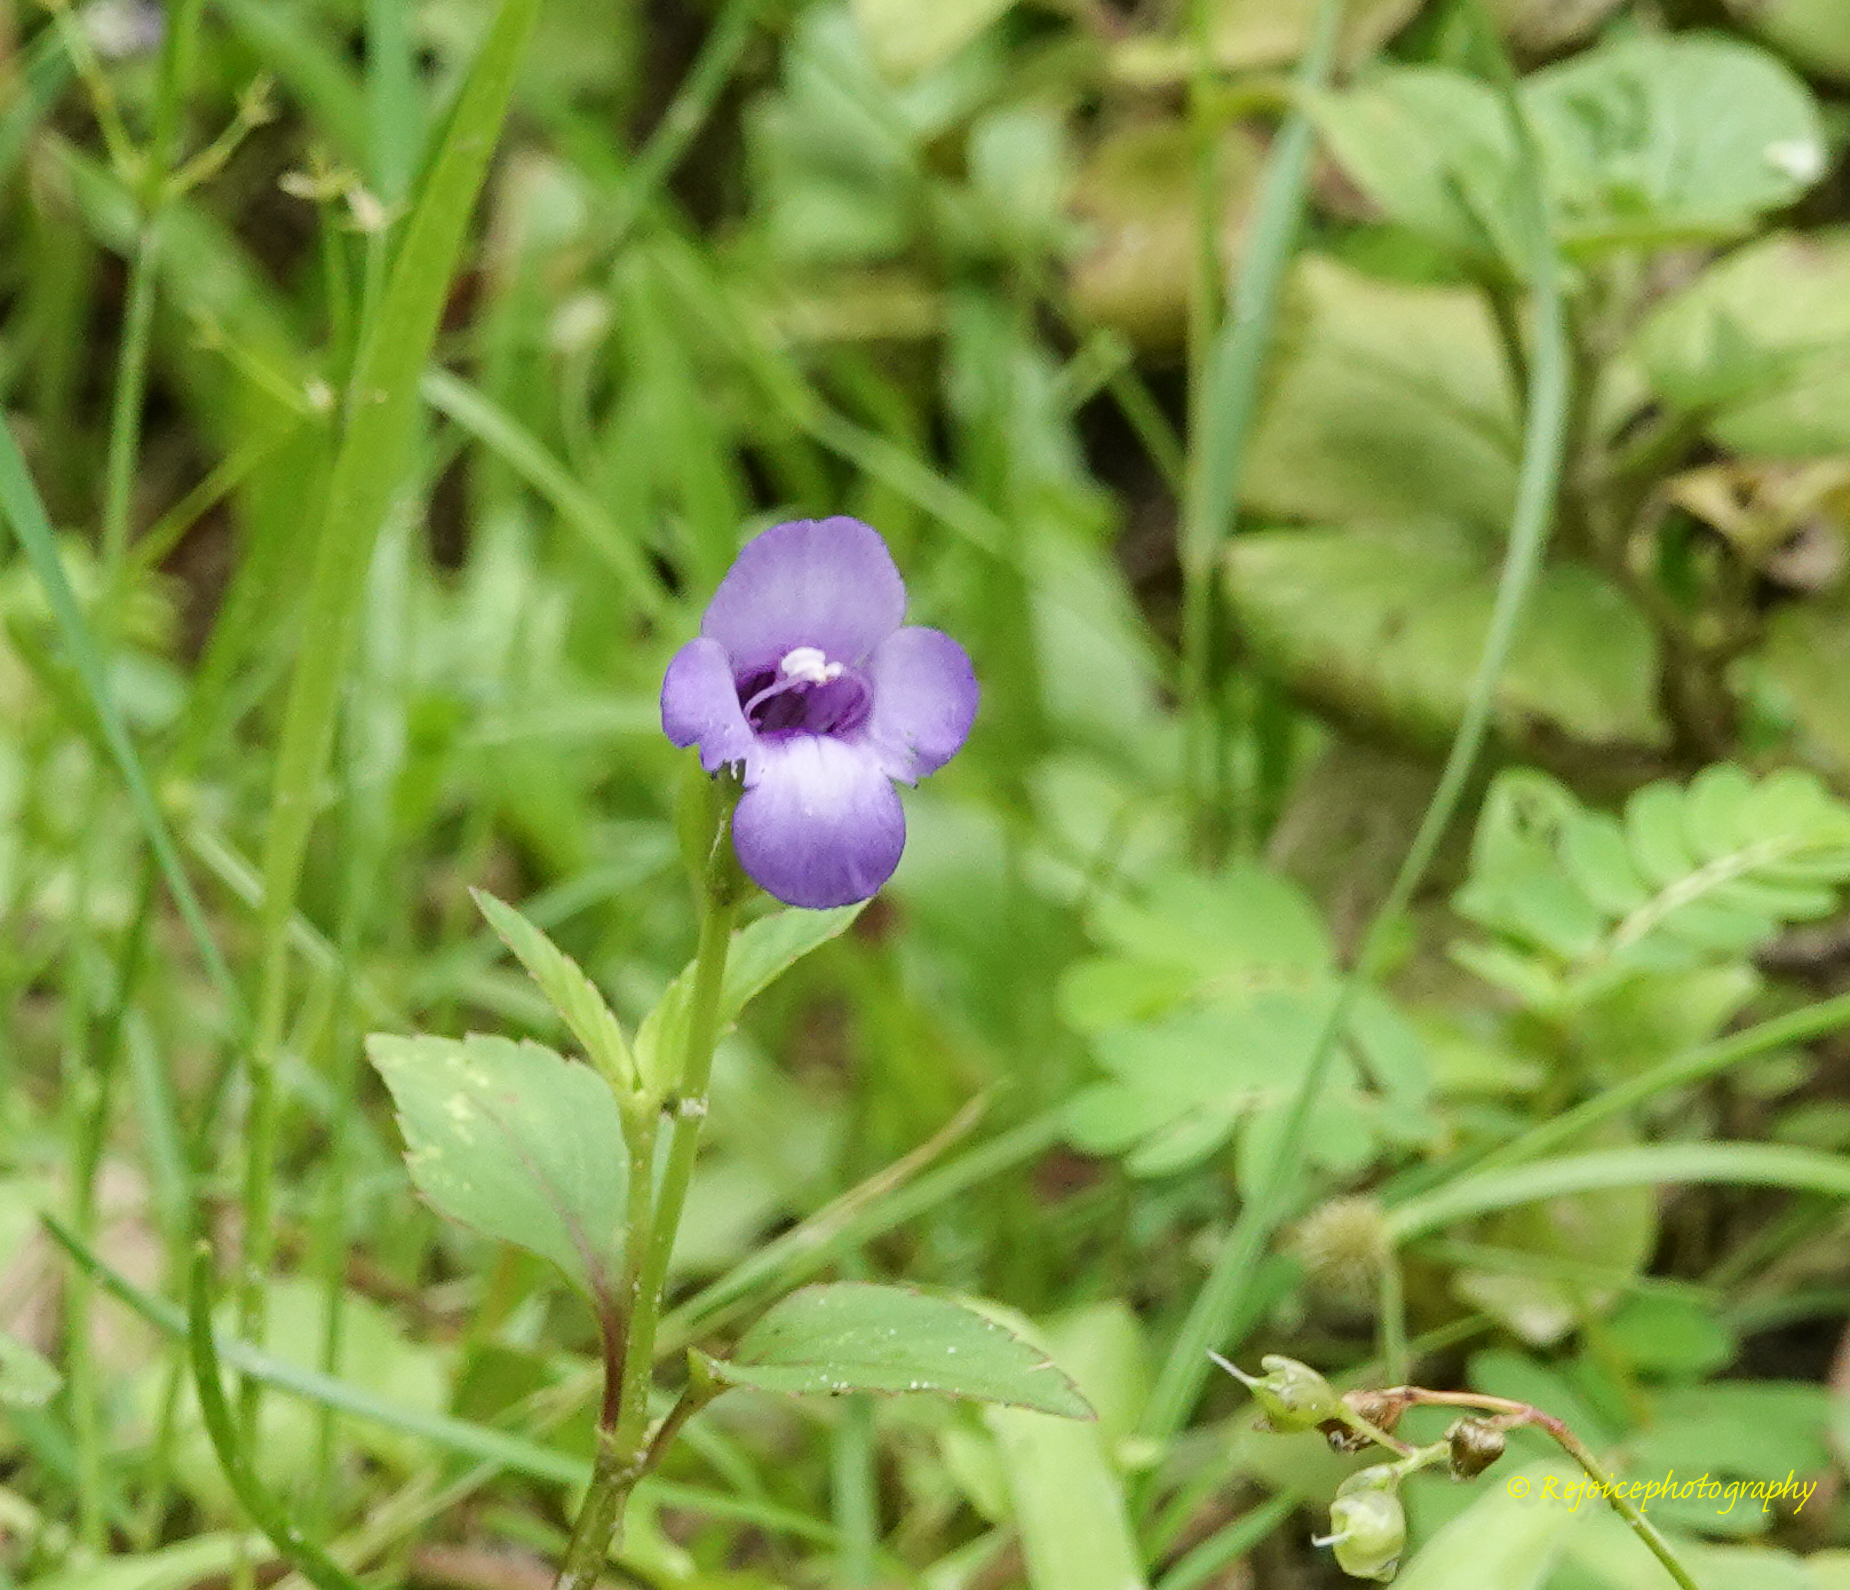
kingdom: Plantae
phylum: Tracheophyta
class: Magnoliopsida
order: Lamiales
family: Linderniaceae
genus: Torenia
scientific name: Torenia asiatica
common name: Wishbone flower
